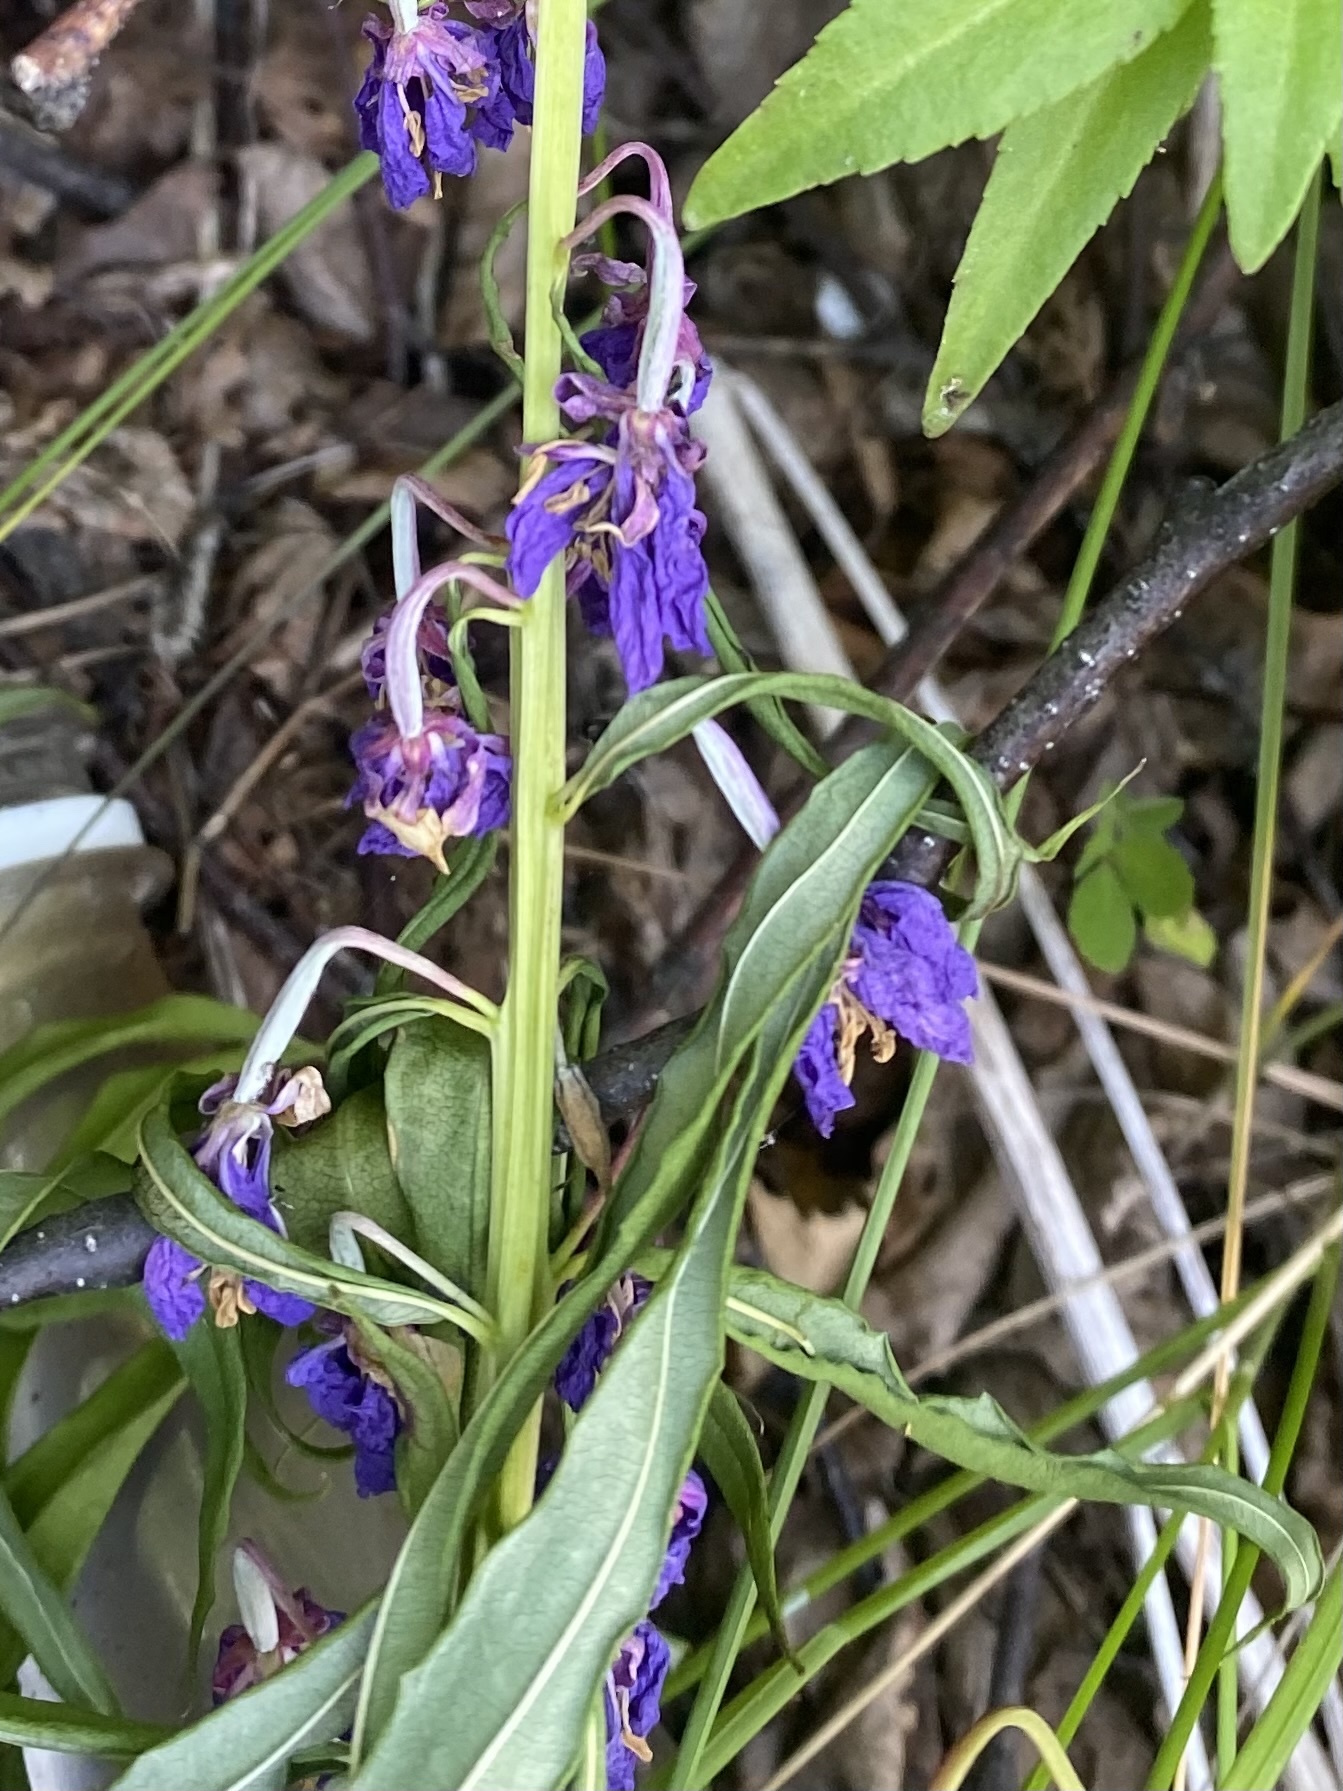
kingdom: Plantae
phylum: Tracheophyta
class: Magnoliopsida
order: Myrtales
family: Onagraceae
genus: Chamaenerion
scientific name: Chamaenerion angustifolium
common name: Fireweed
